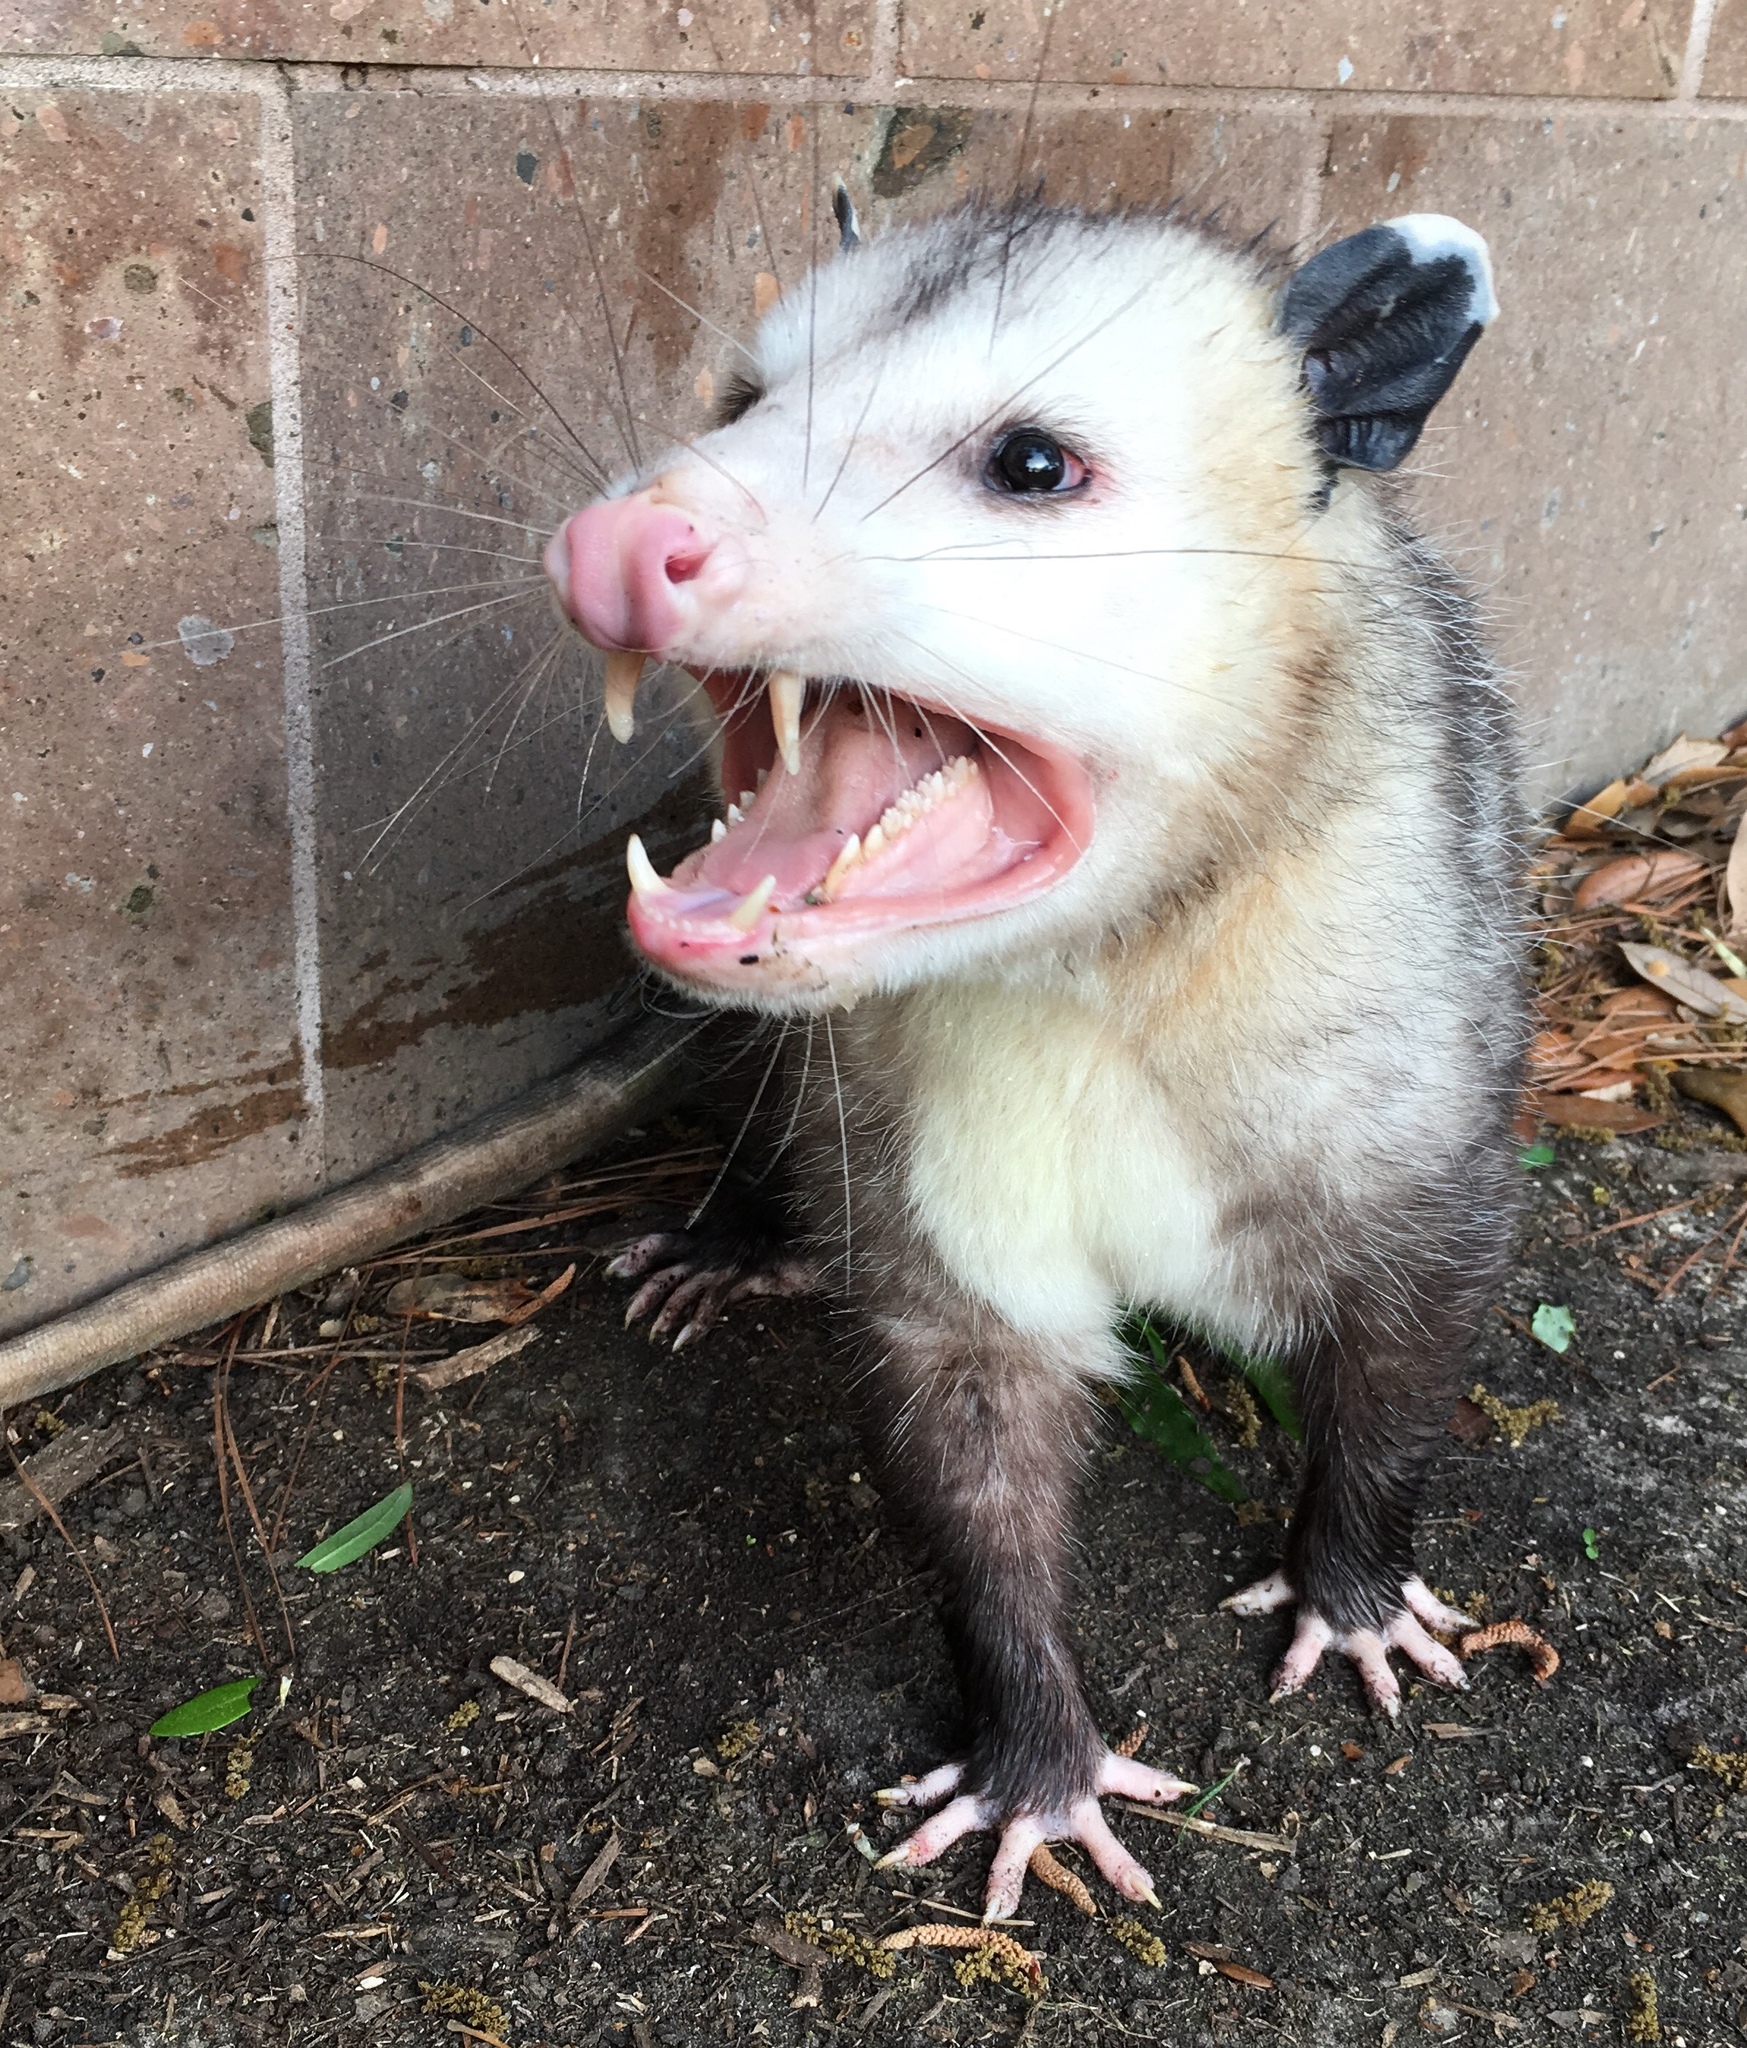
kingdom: Animalia
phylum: Chordata
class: Mammalia
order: Didelphimorphia
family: Didelphidae
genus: Didelphis
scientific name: Didelphis virginiana
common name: Virginia opossum
